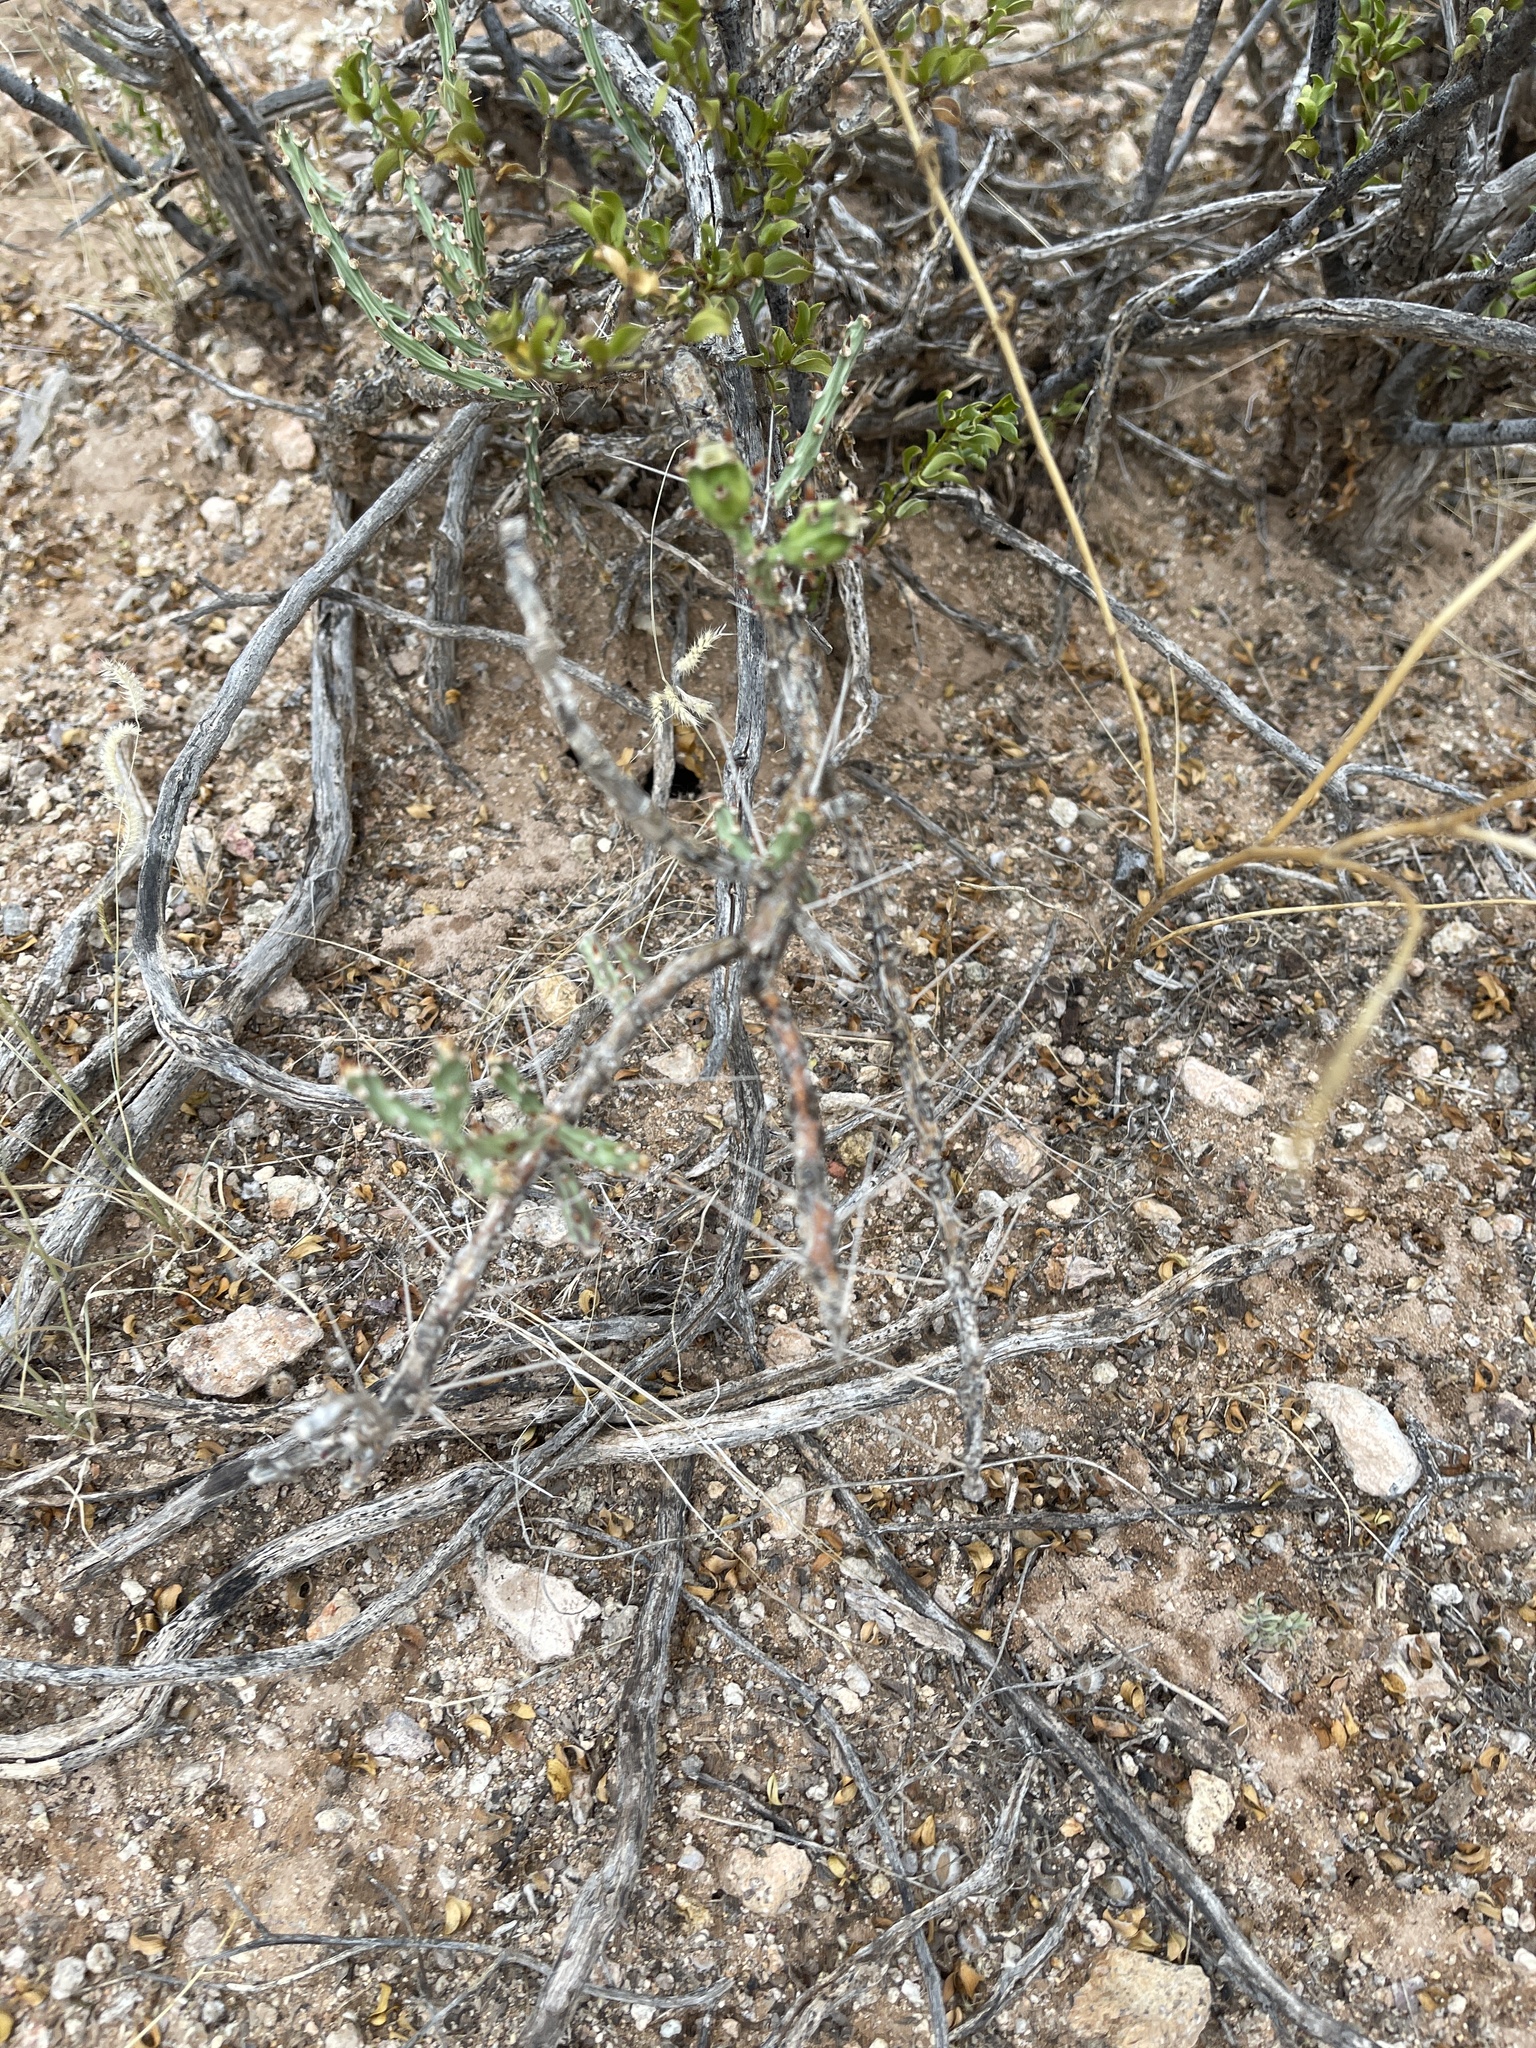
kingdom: Plantae
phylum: Tracheophyta
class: Magnoliopsida
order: Caryophyllales
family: Cactaceae
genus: Cylindropuntia
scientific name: Cylindropuntia leptocaulis
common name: Christmas cactus
